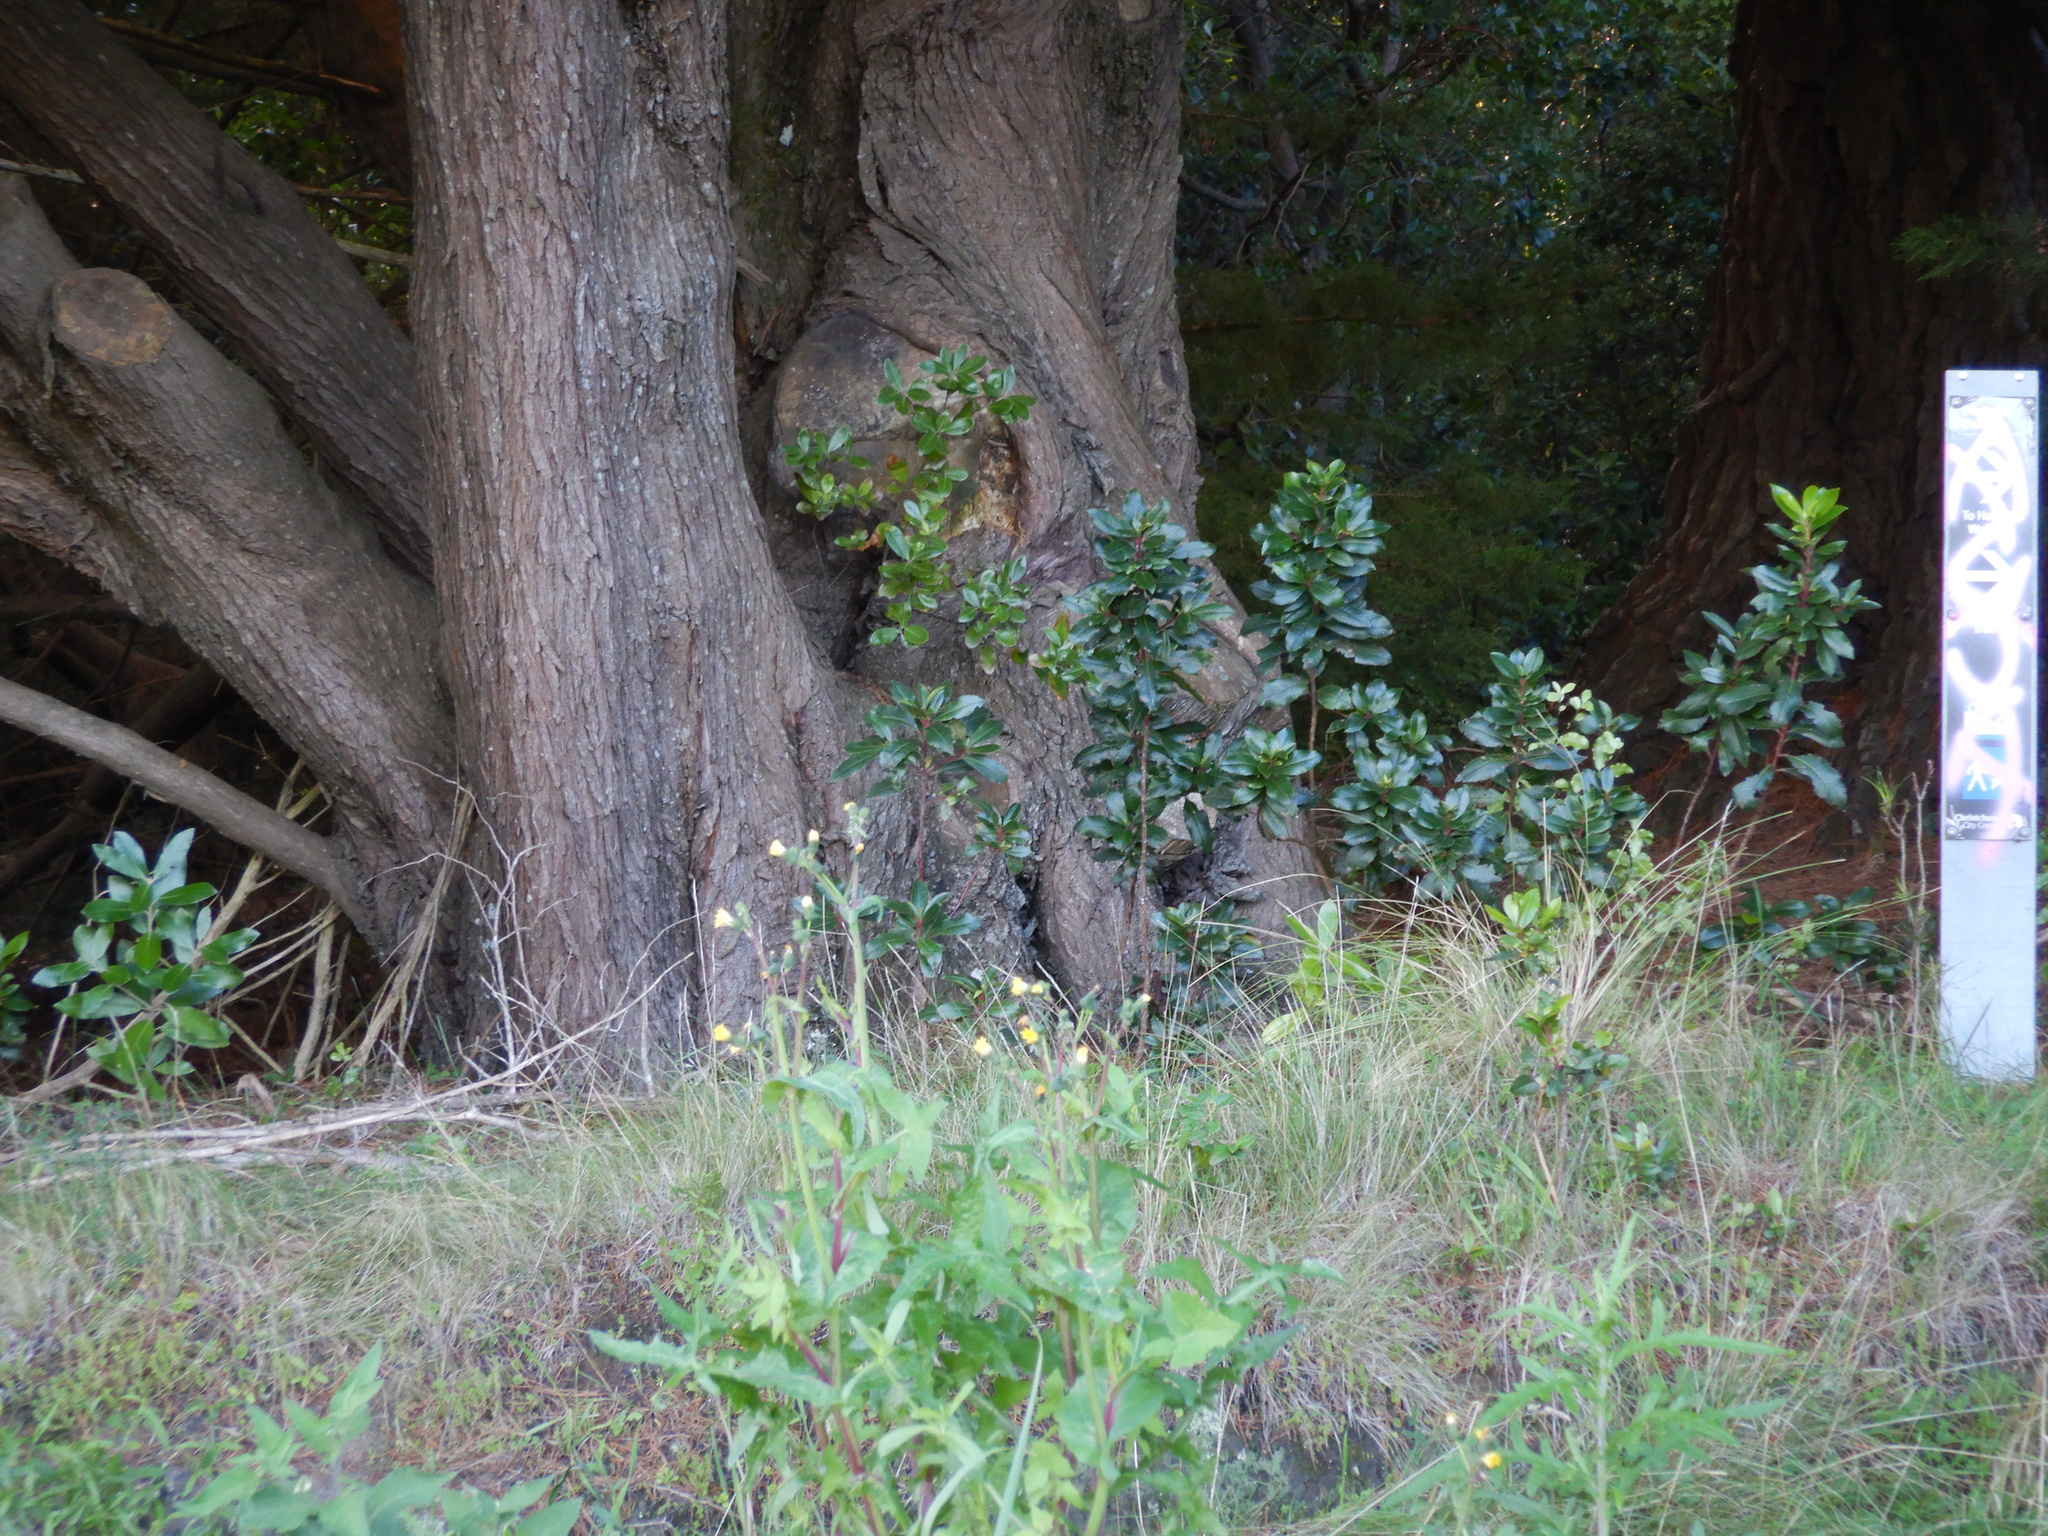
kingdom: Plantae
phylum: Tracheophyta
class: Magnoliopsida
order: Ericales
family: Ericaceae
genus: Arbutus
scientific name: Arbutus unedo
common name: Strawberry-tree
